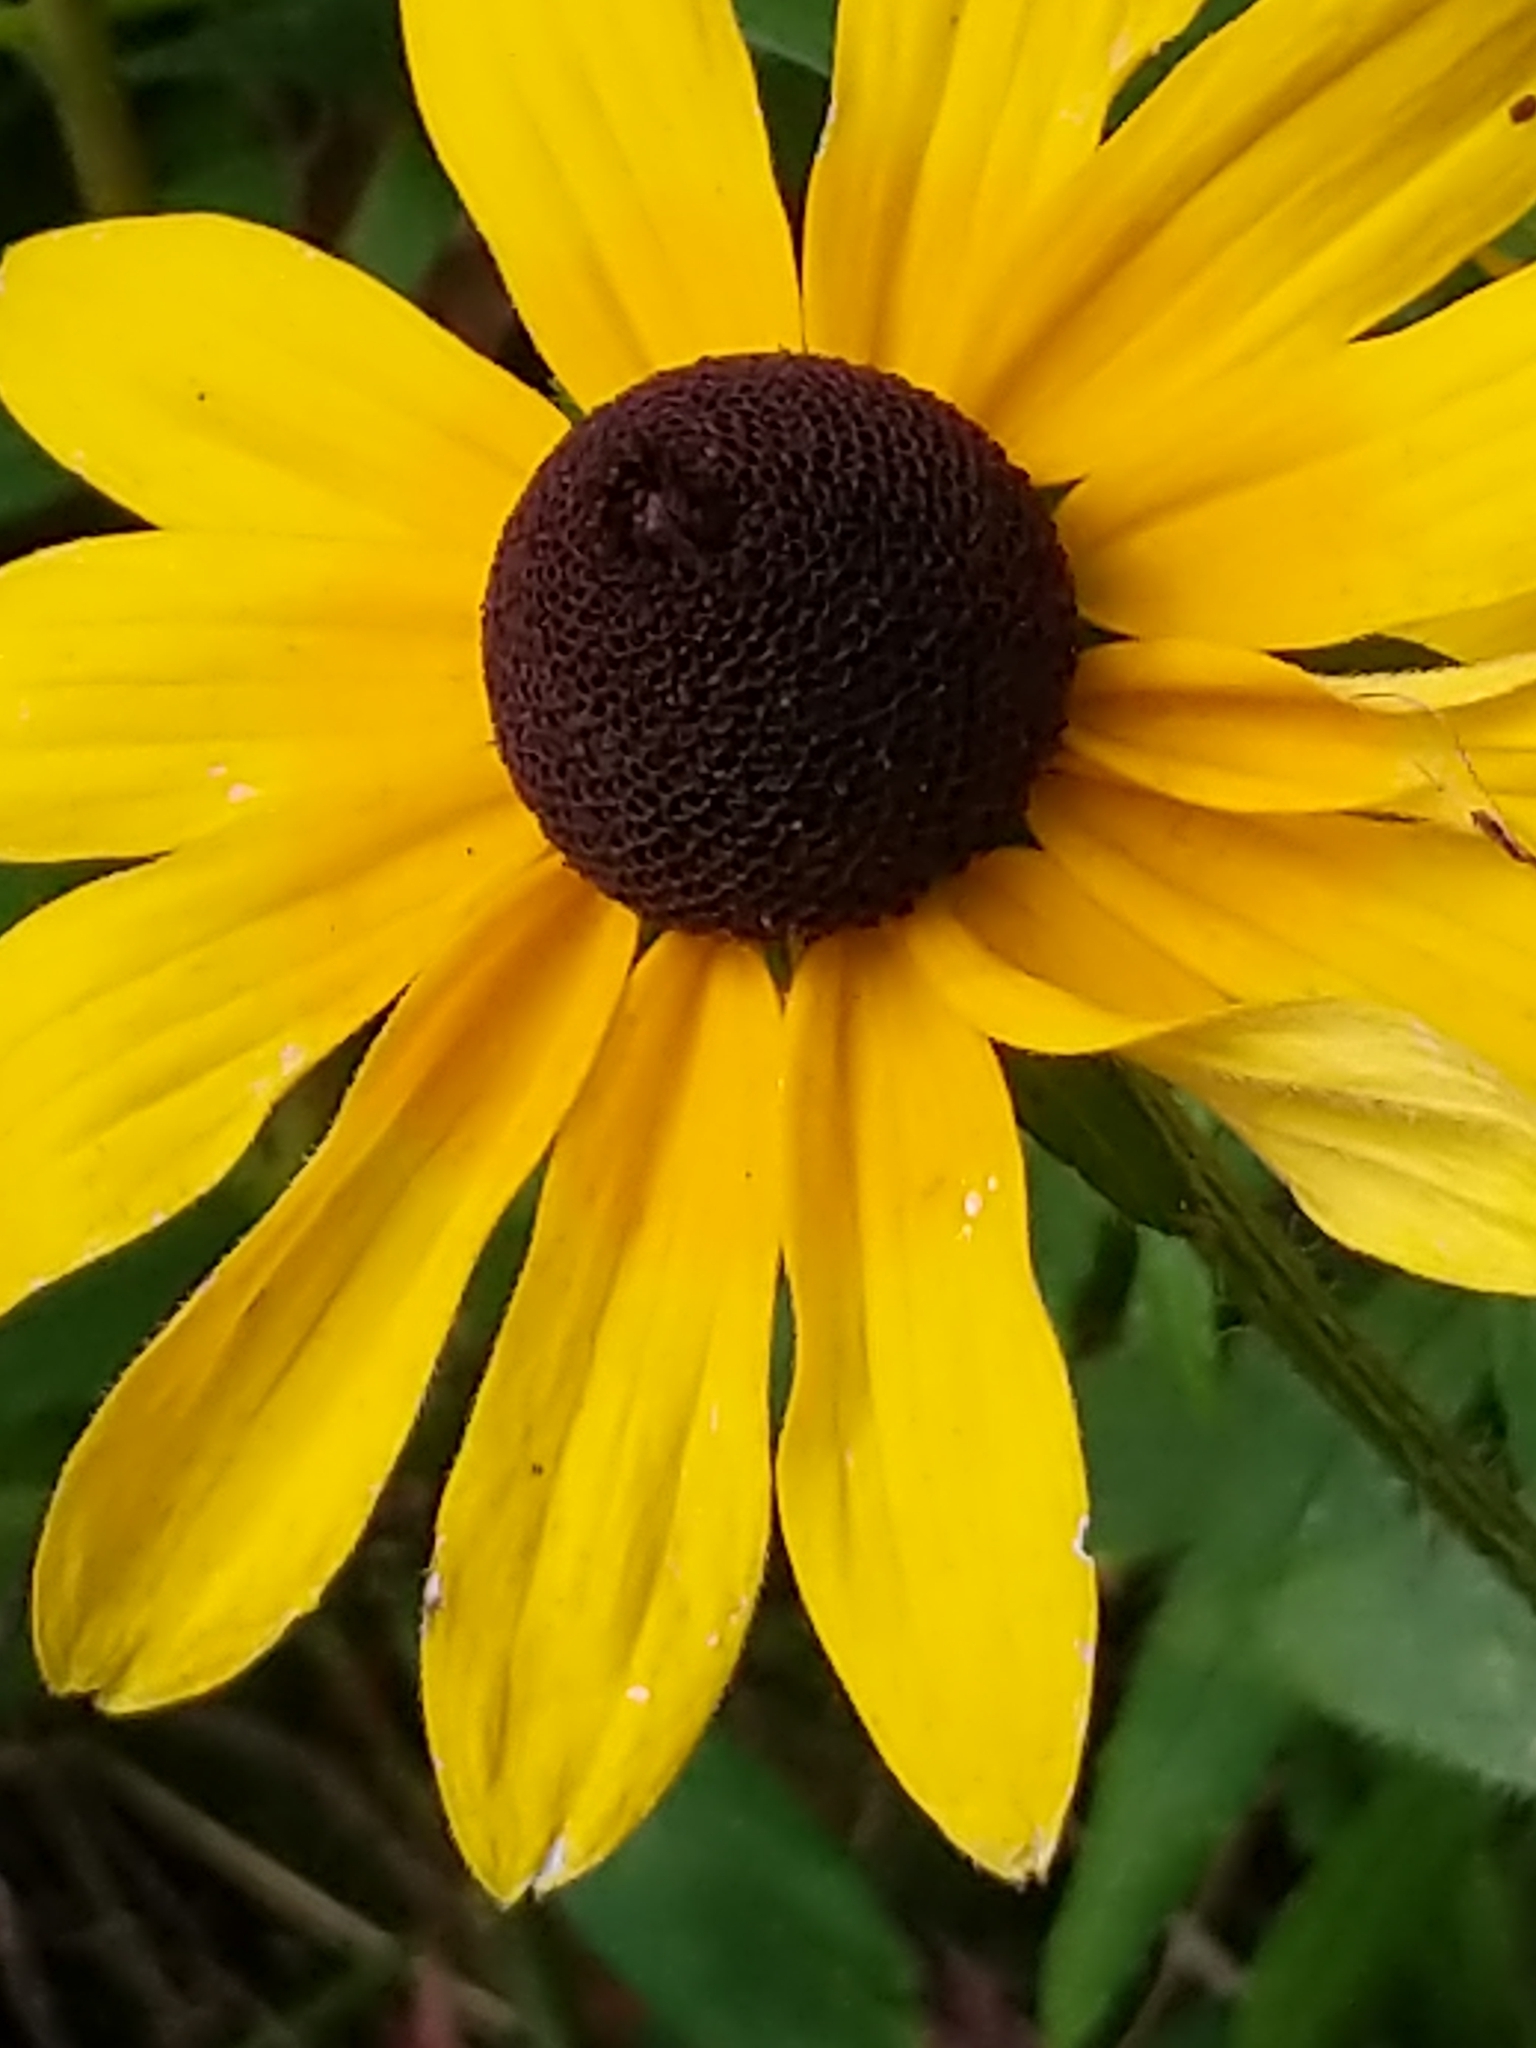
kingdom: Plantae
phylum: Tracheophyta
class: Magnoliopsida
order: Asterales
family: Asteraceae
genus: Rudbeckia
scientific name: Rudbeckia hirta
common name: Black-eyed-susan
